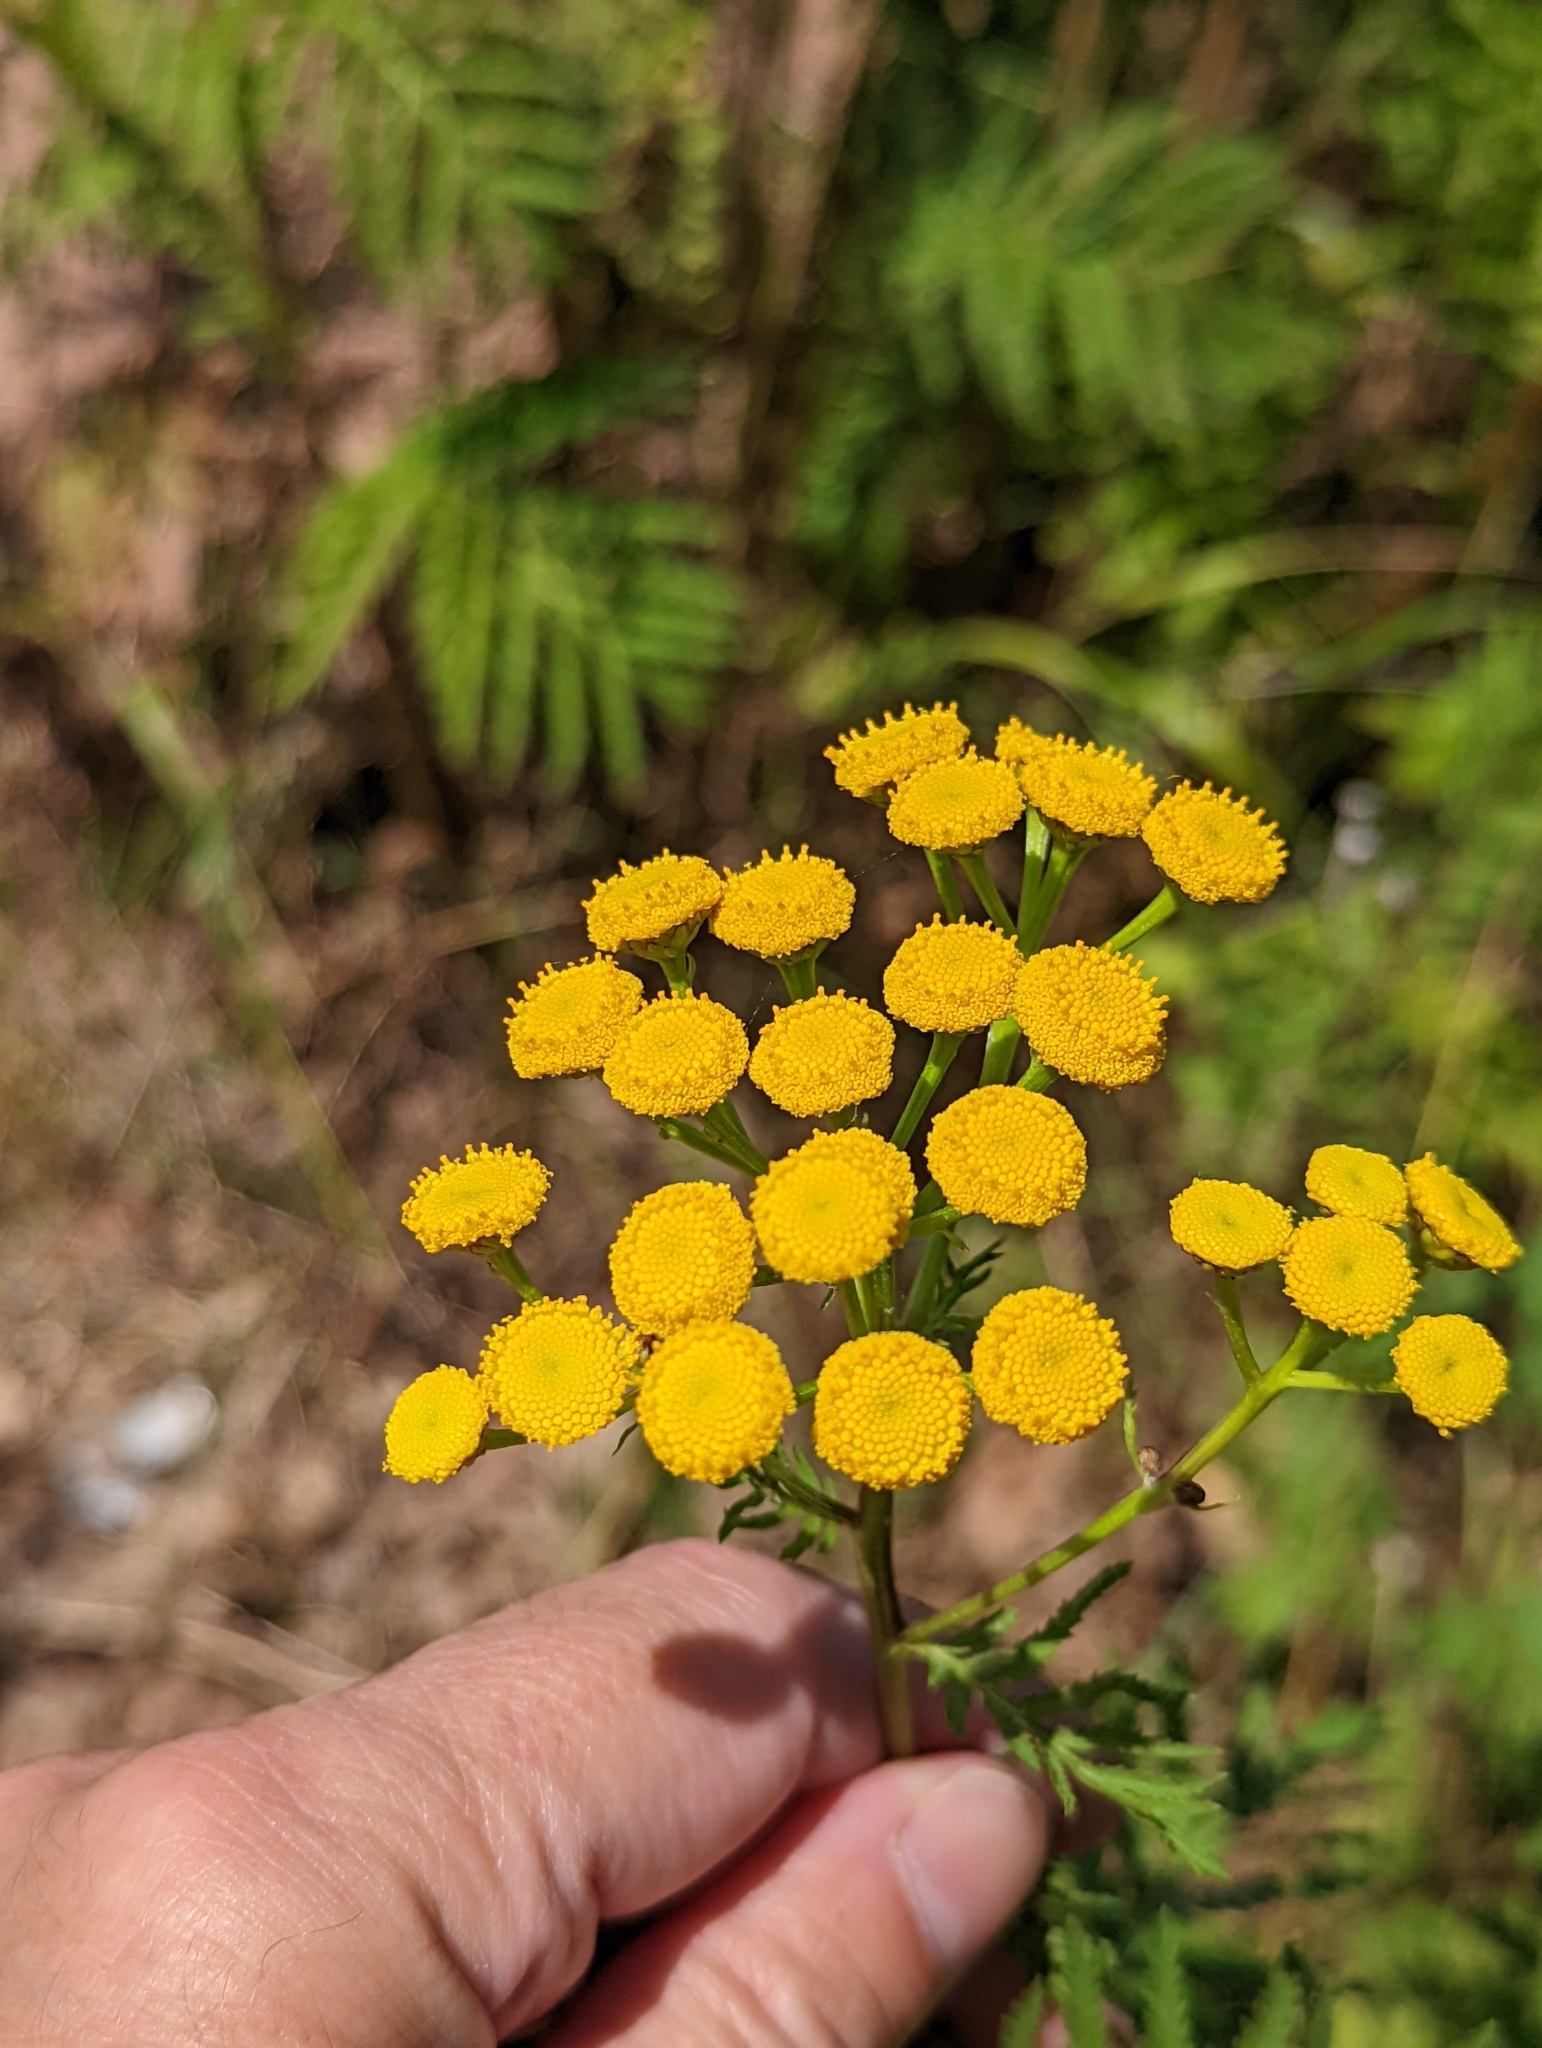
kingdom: Plantae
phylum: Tracheophyta
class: Magnoliopsida
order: Asterales
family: Asteraceae
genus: Tanacetum
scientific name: Tanacetum vulgare
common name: Common tansy
